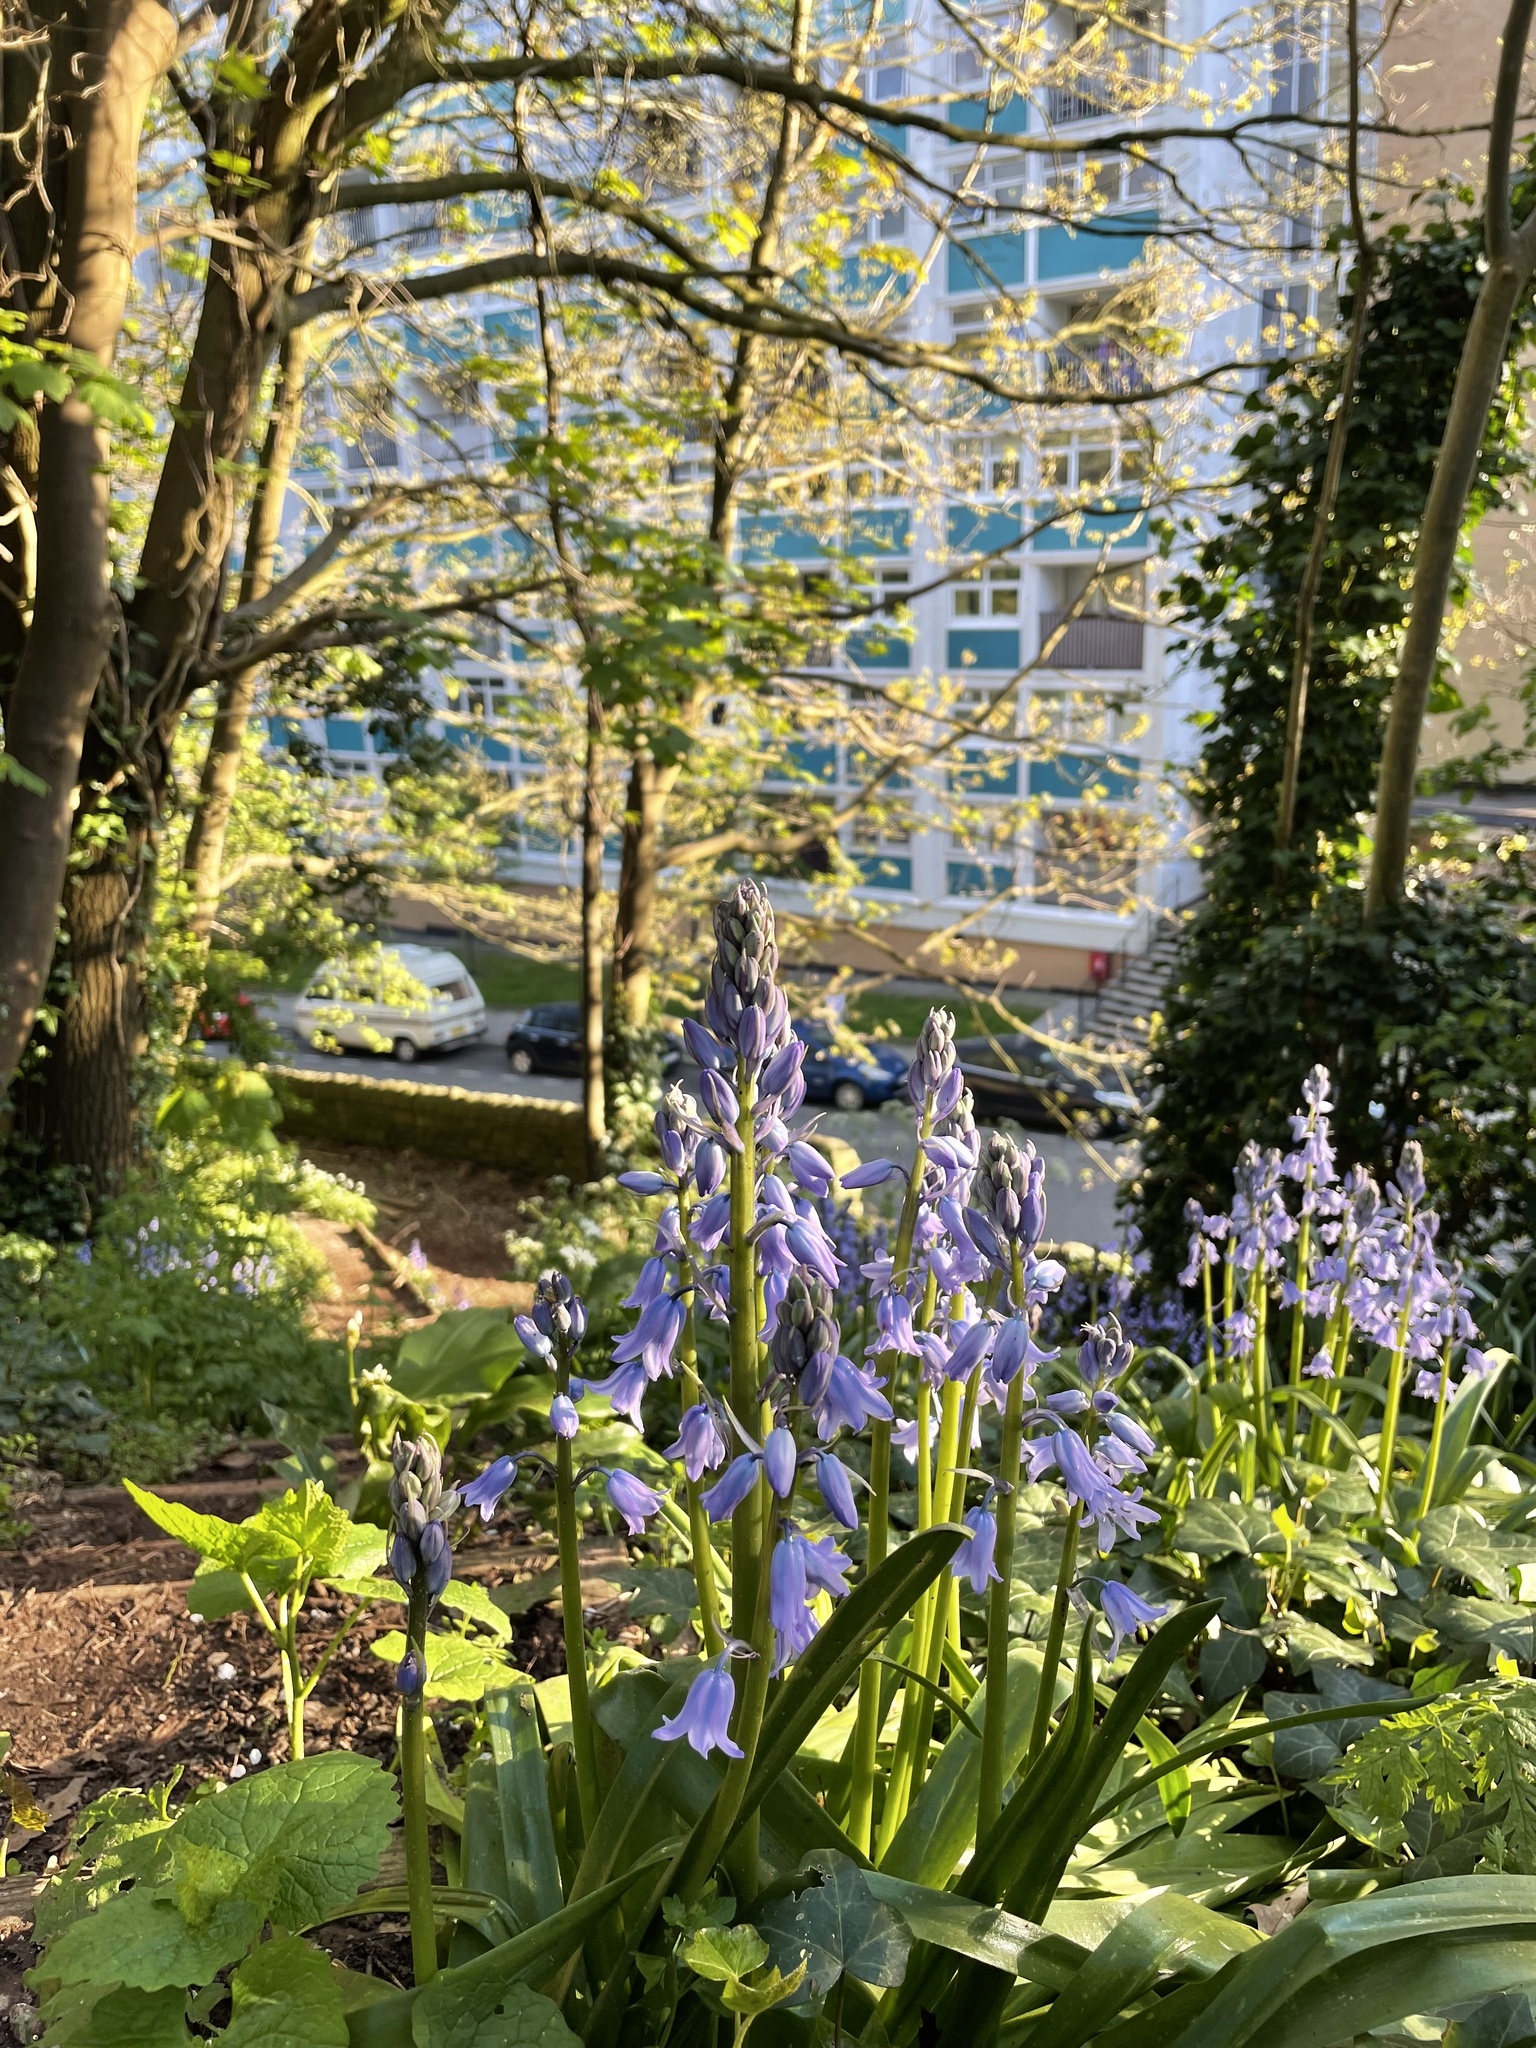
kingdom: Plantae
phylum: Tracheophyta
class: Liliopsida
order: Asparagales
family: Asparagaceae
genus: Hyacinthoides
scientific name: Hyacinthoides massartiana
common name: Hyacinthoides
